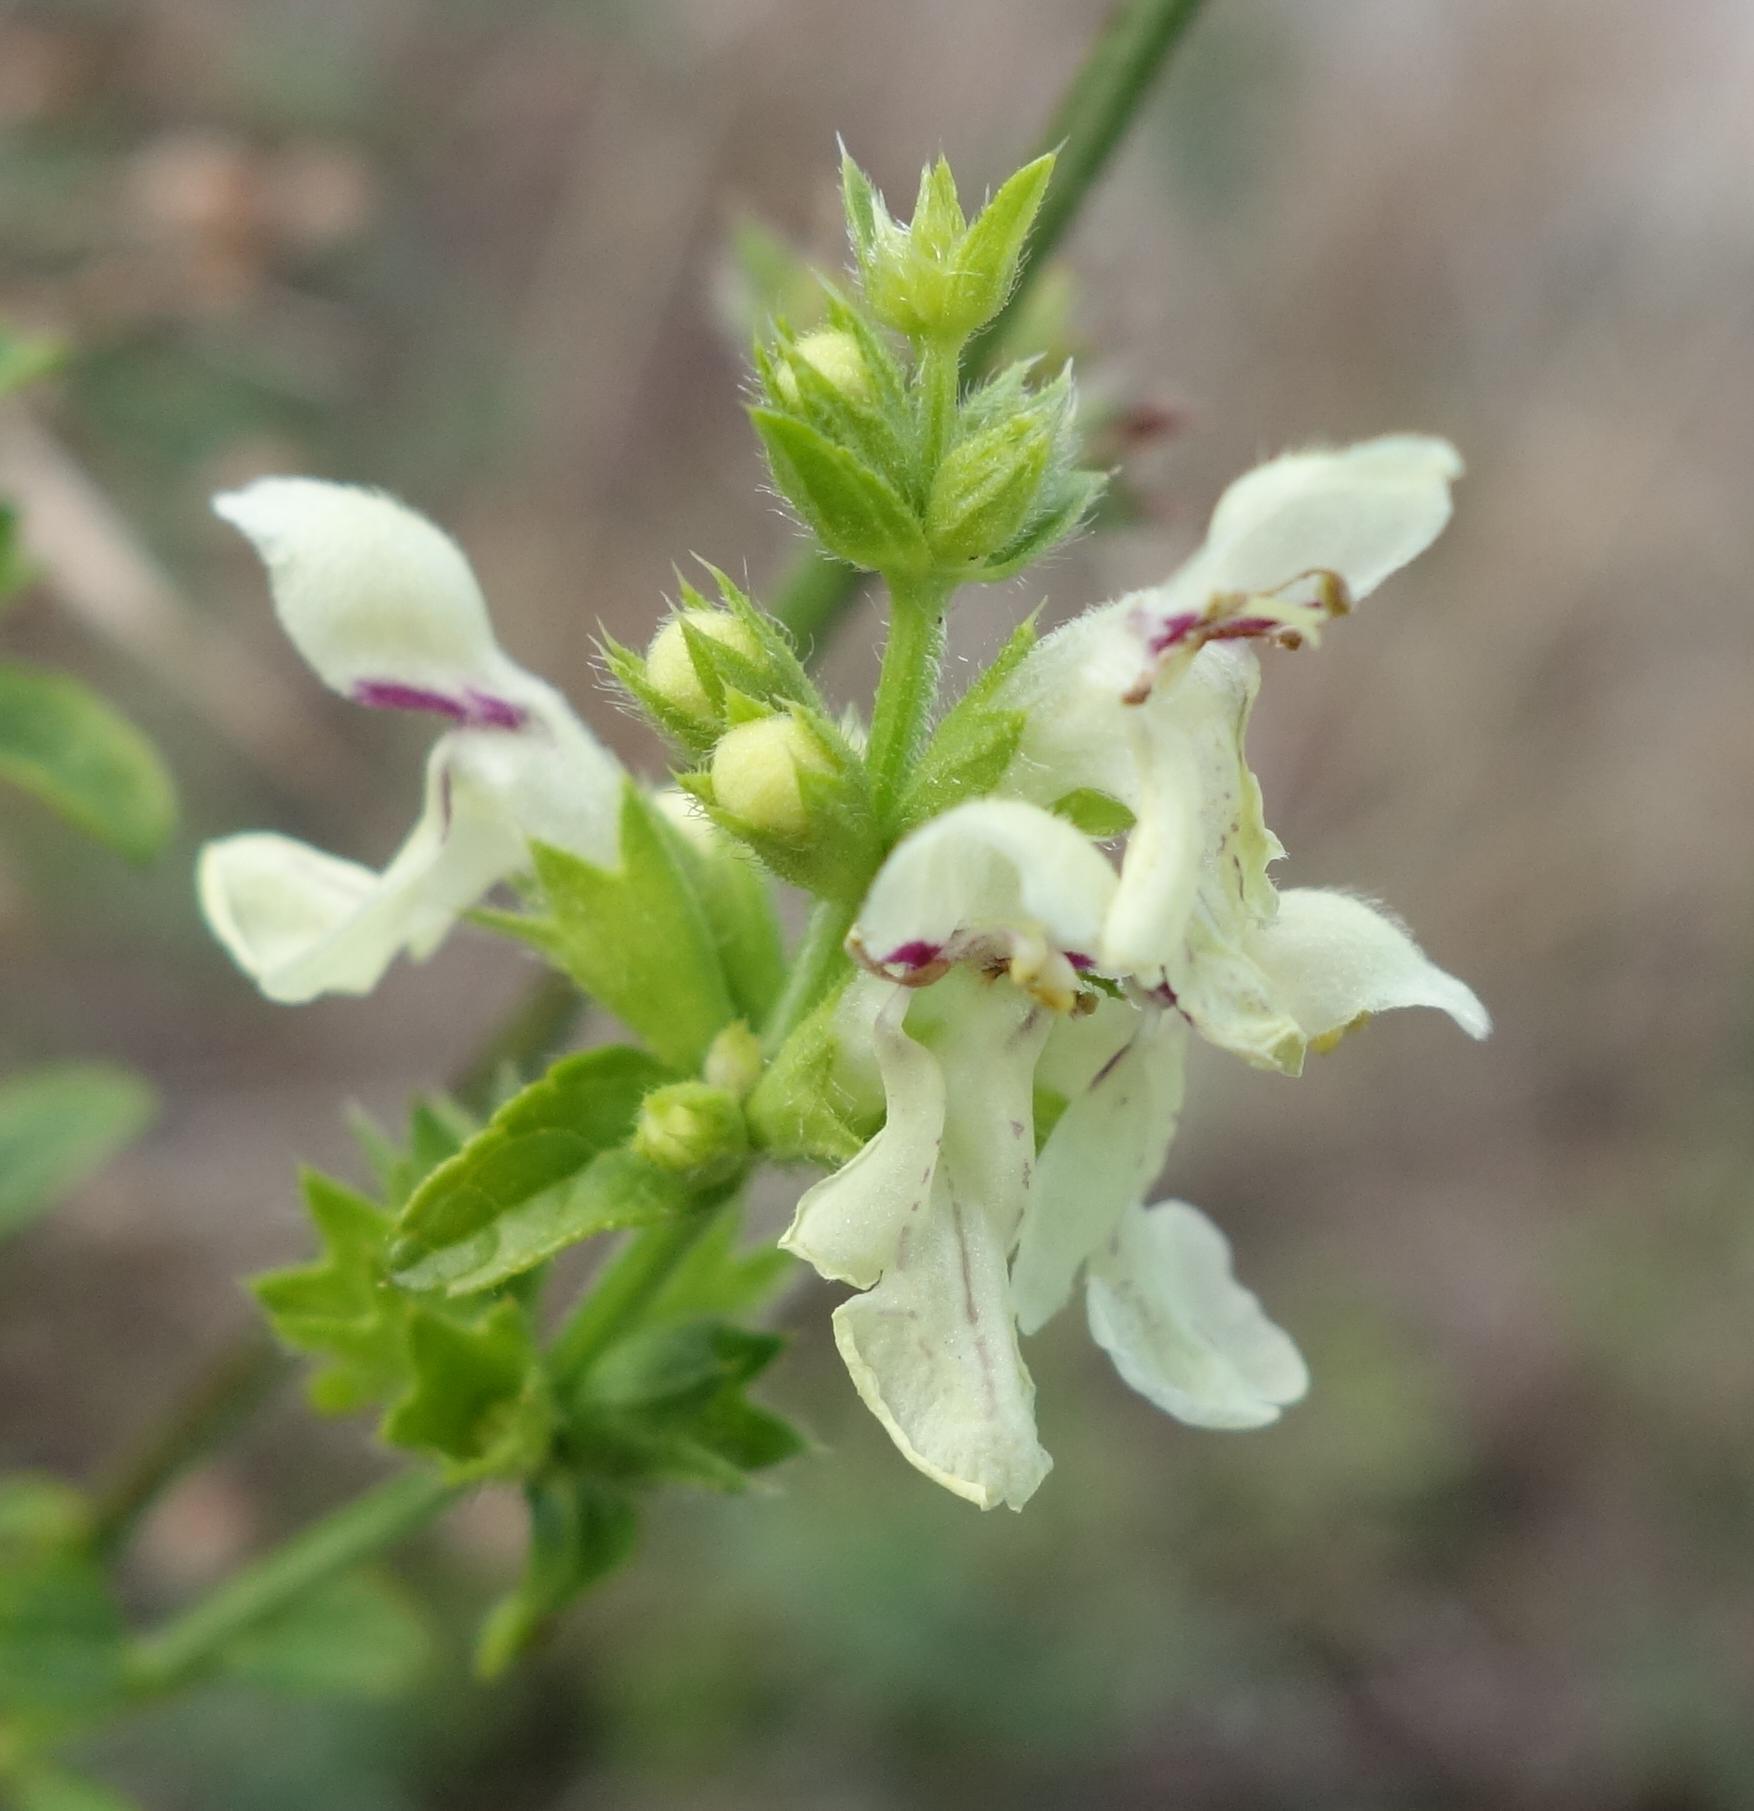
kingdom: Plantae
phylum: Tracheophyta
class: Magnoliopsida
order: Lamiales
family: Lamiaceae
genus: Stachys
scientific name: Stachys recta
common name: Perennial yellow-woundwort
